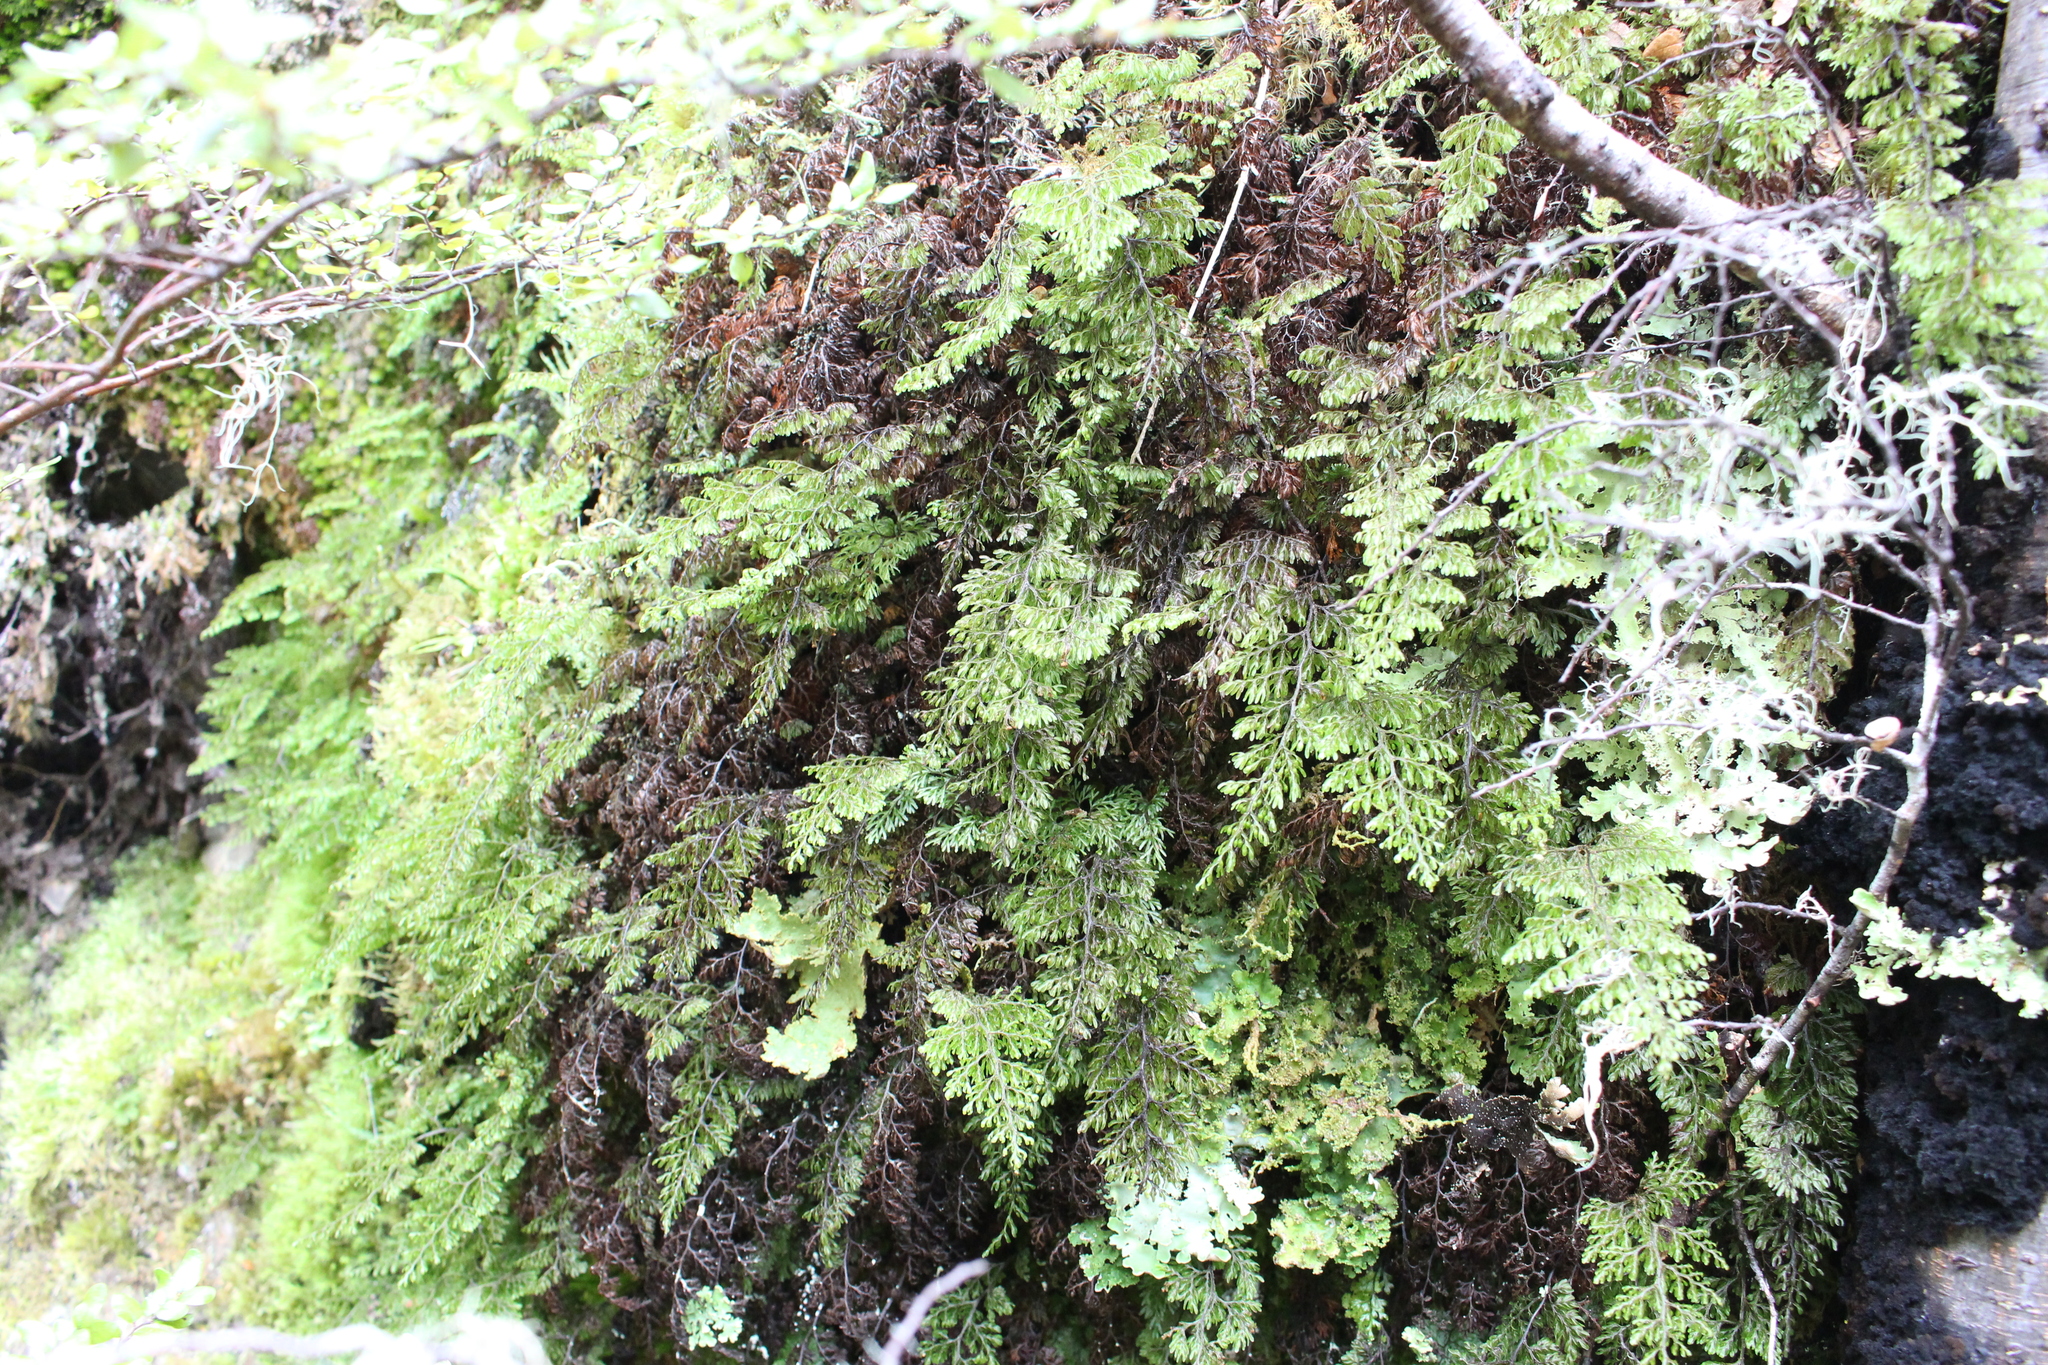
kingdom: Plantae
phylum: Tracheophyta
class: Polypodiopsida
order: Hymenophyllales
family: Hymenophyllaceae
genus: Hymenophyllum
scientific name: Hymenophyllum villosum
